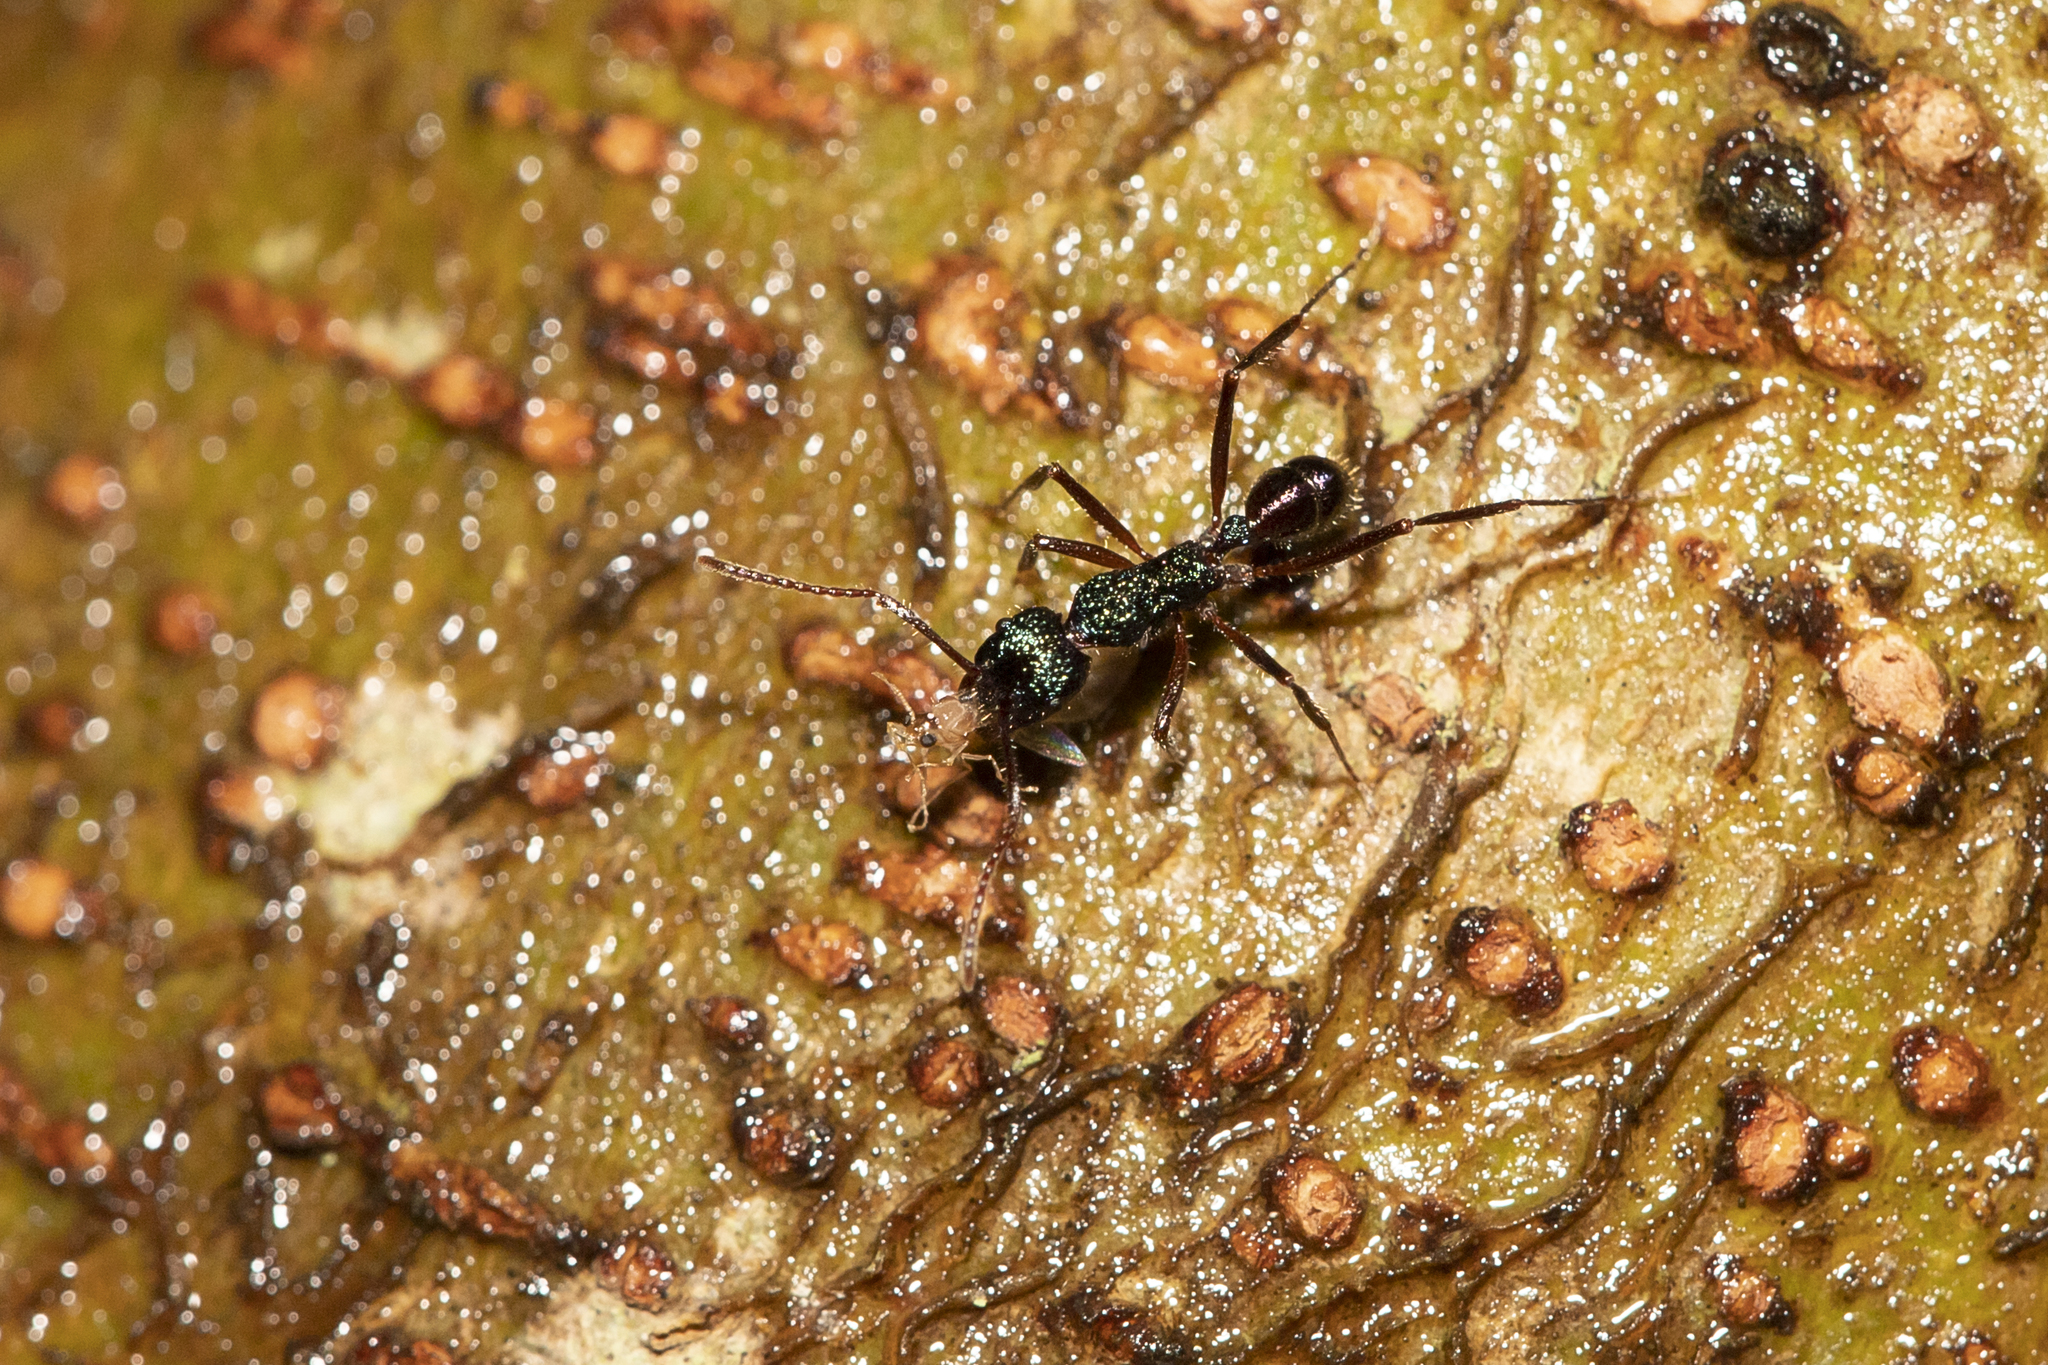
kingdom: Animalia
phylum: Arthropoda
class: Insecta
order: Hymenoptera
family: Formicidae
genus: Rhytidoponera
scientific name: Rhytidoponera purpurea
